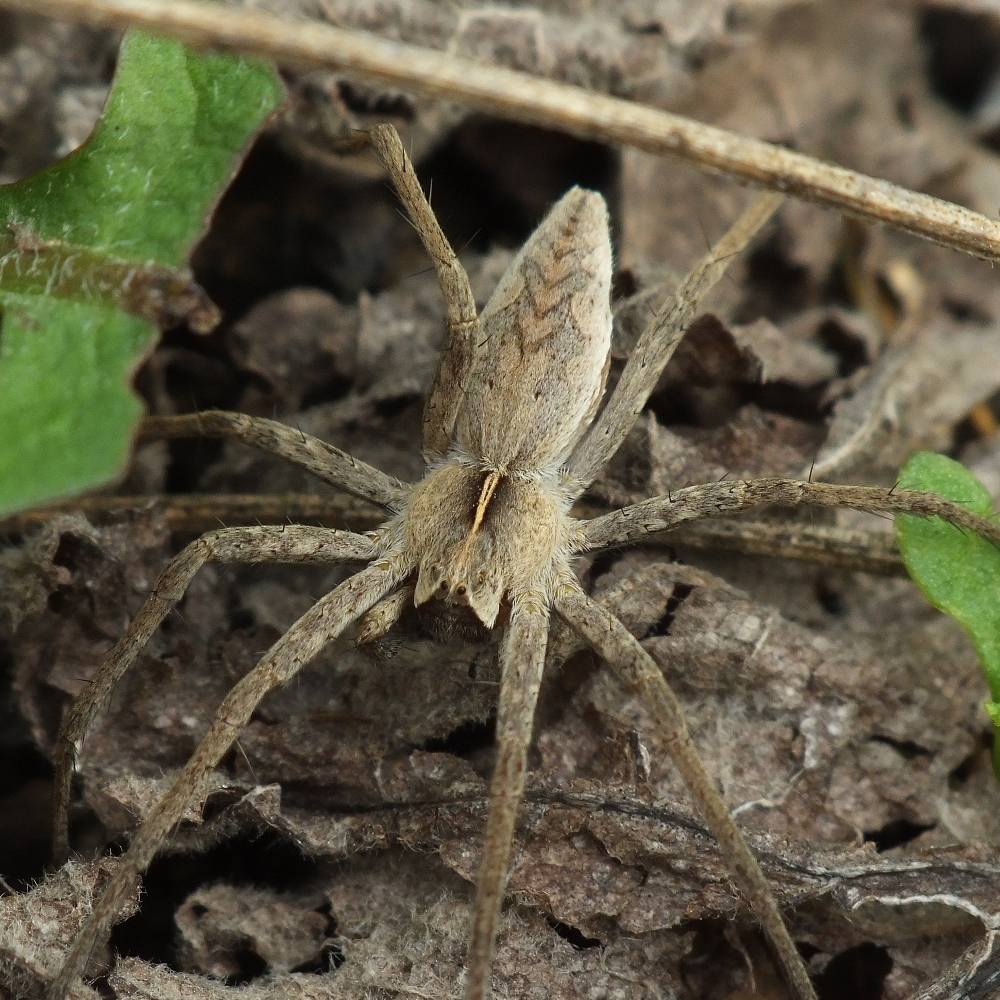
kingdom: Animalia
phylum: Arthropoda
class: Arachnida
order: Araneae
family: Pisauridae
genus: Pisaura
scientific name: Pisaura
